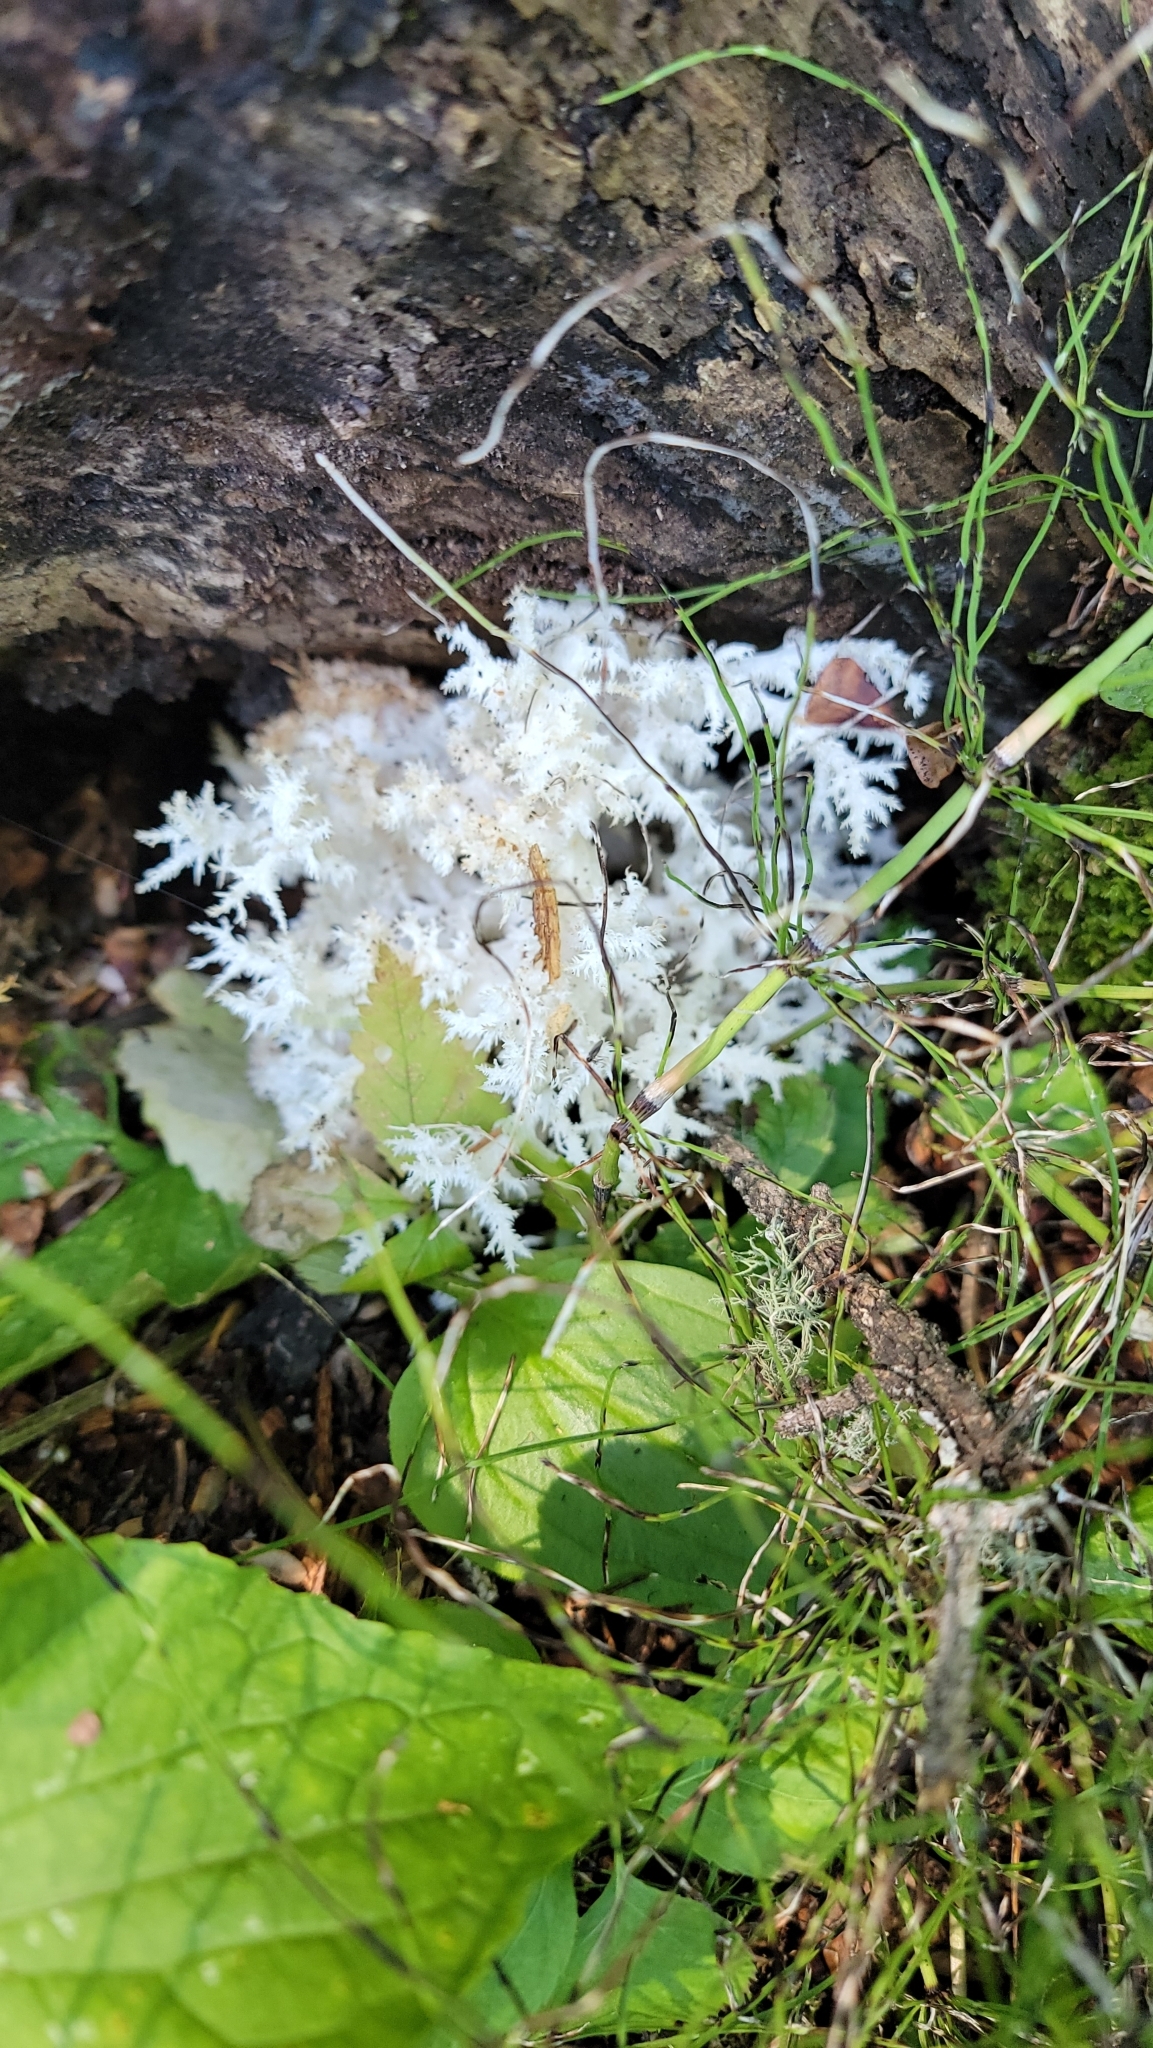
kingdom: Fungi
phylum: Basidiomycota
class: Agaricomycetes
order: Russulales
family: Hericiaceae
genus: Hericium
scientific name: Hericium coralloides
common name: Coral tooth
